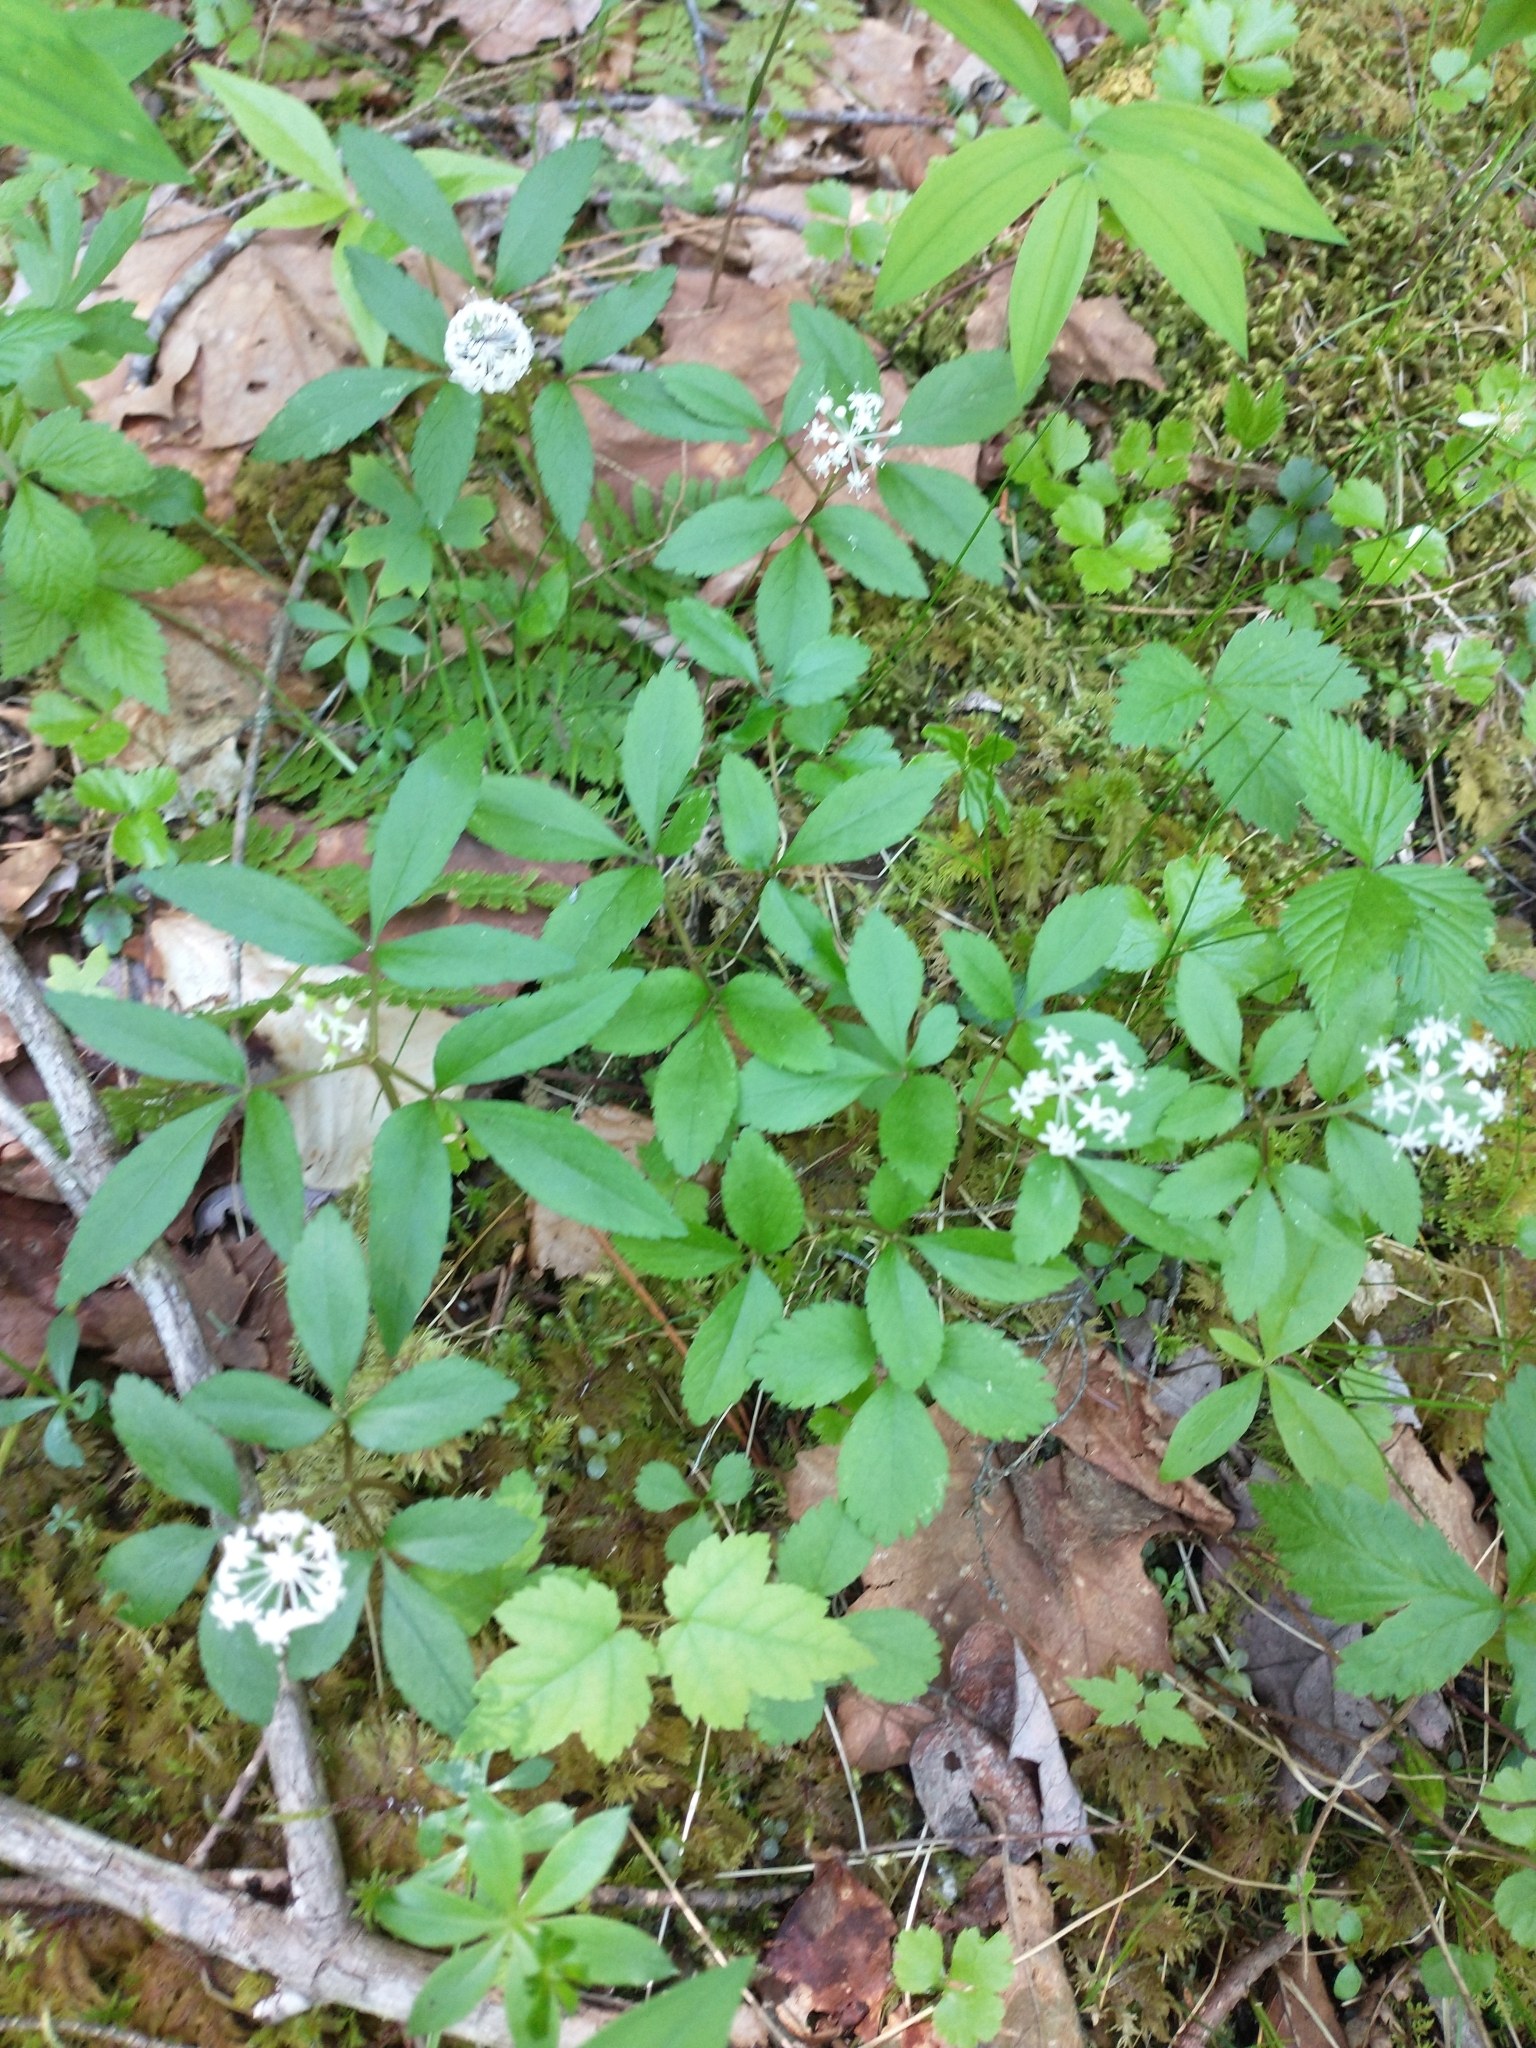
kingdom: Plantae
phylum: Tracheophyta
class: Magnoliopsida
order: Apiales
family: Araliaceae
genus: Panax
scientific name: Panax trifolius
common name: Dwarf ginseng
